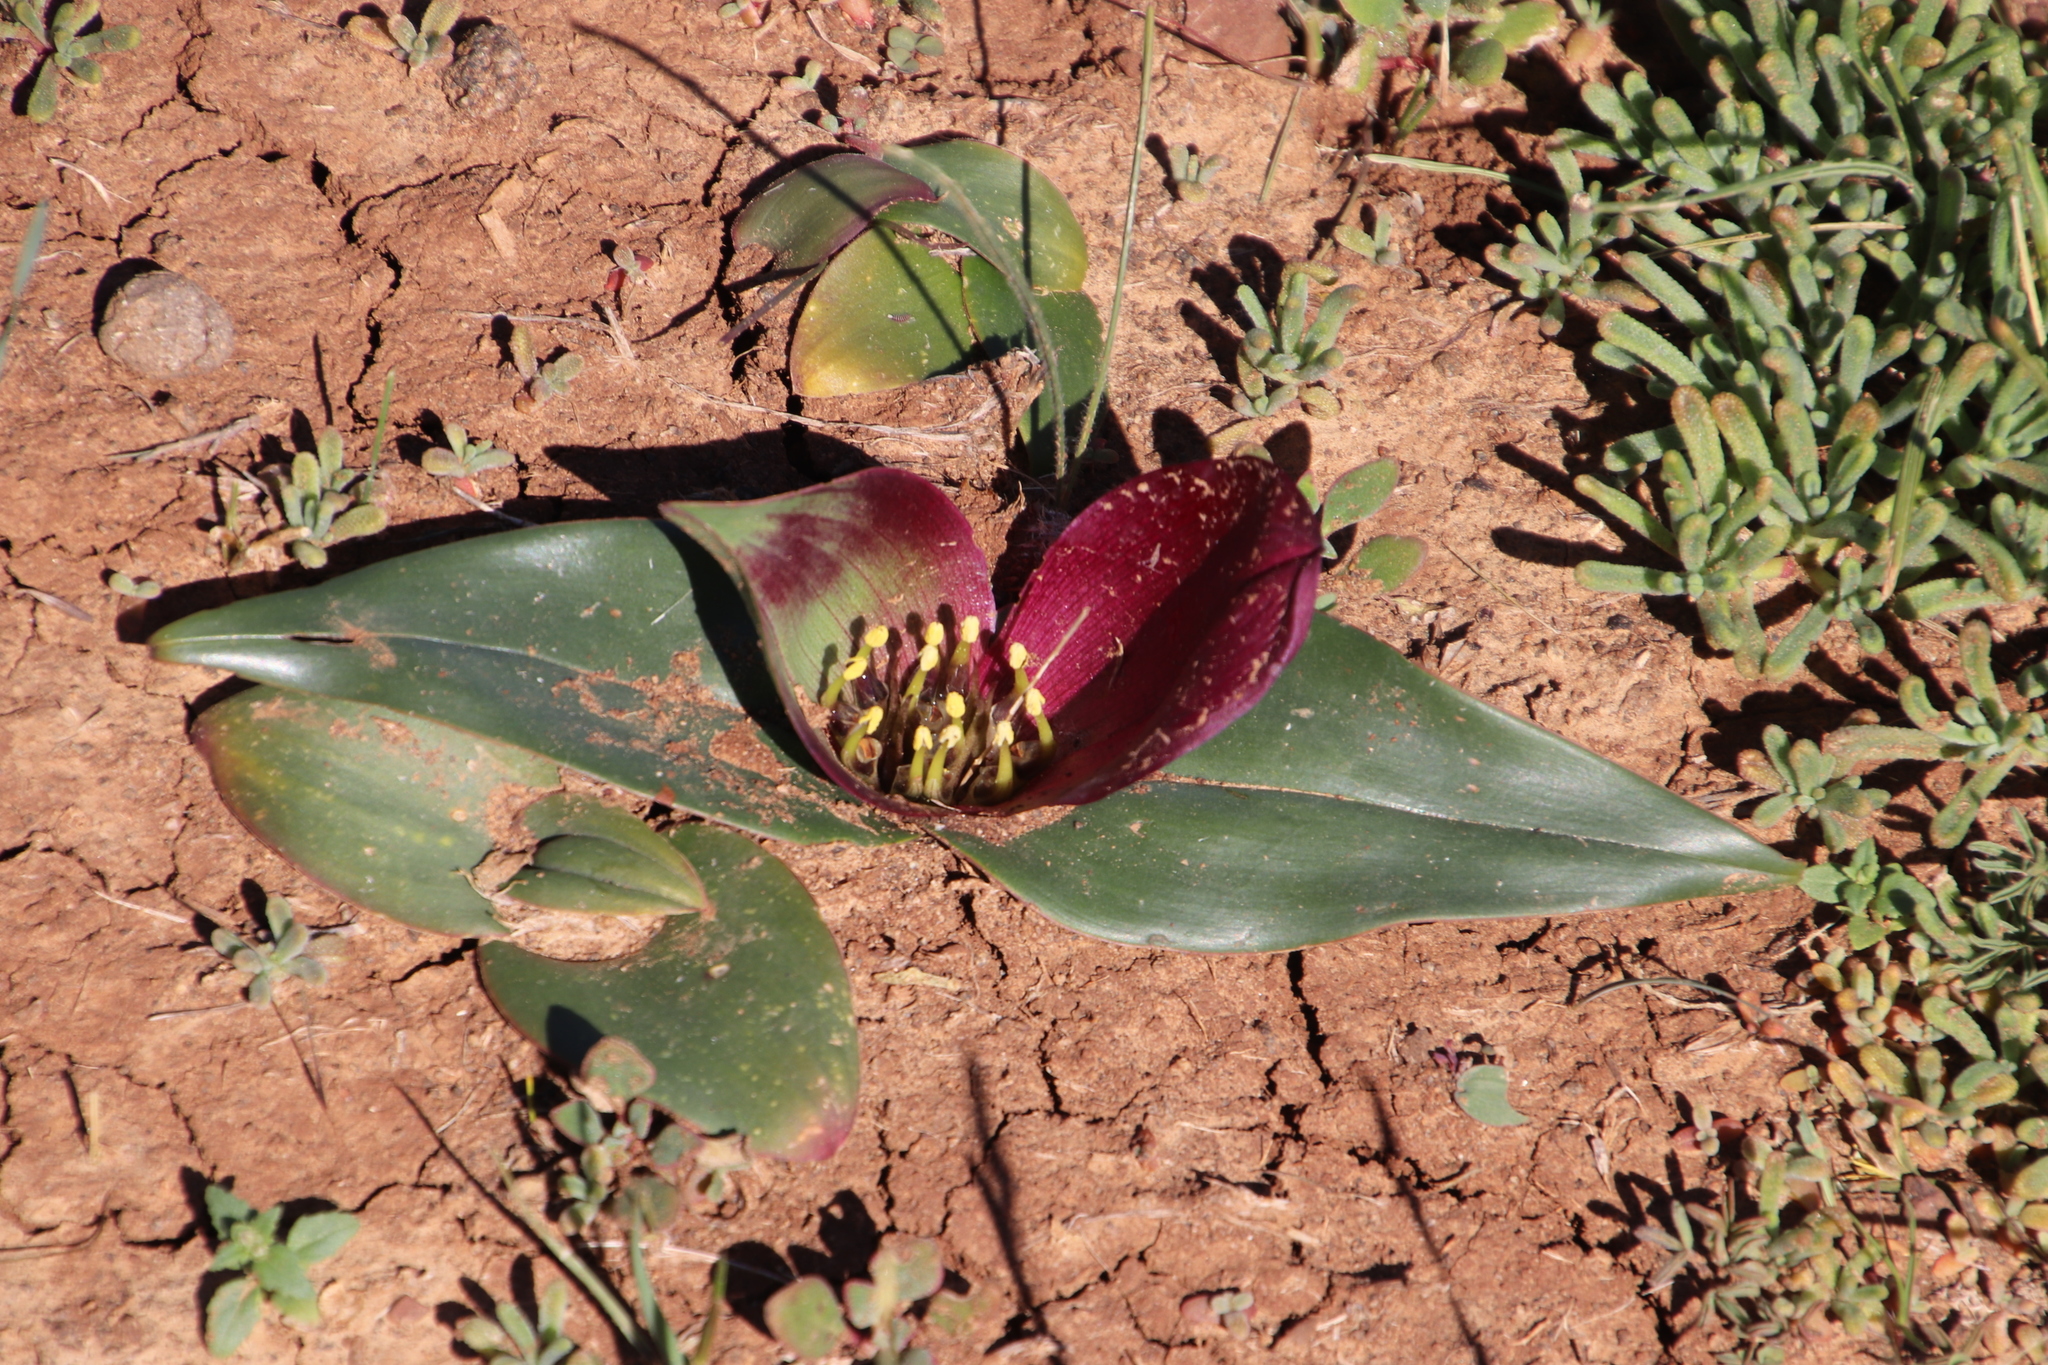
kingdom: Plantae
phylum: Tracheophyta
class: Liliopsida
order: Liliales
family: Colchicaceae
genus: Colchicum
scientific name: Colchicum burchellii
